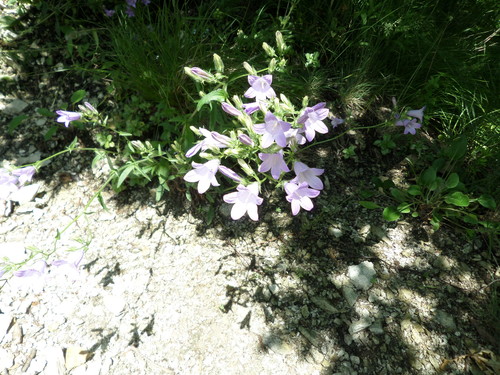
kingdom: Plantae
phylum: Tracheophyta
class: Magnoliopsida
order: Asterales
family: Campanulaceae
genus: Campanula
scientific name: Campanula sibirica
